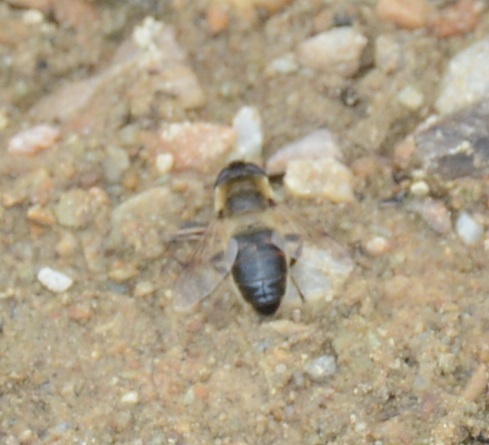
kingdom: Animalia
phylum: Arthropoda
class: Insecta
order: Diptera
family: Syrphidae
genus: Eristalis
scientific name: Eristalis tenax
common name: Drone fly
